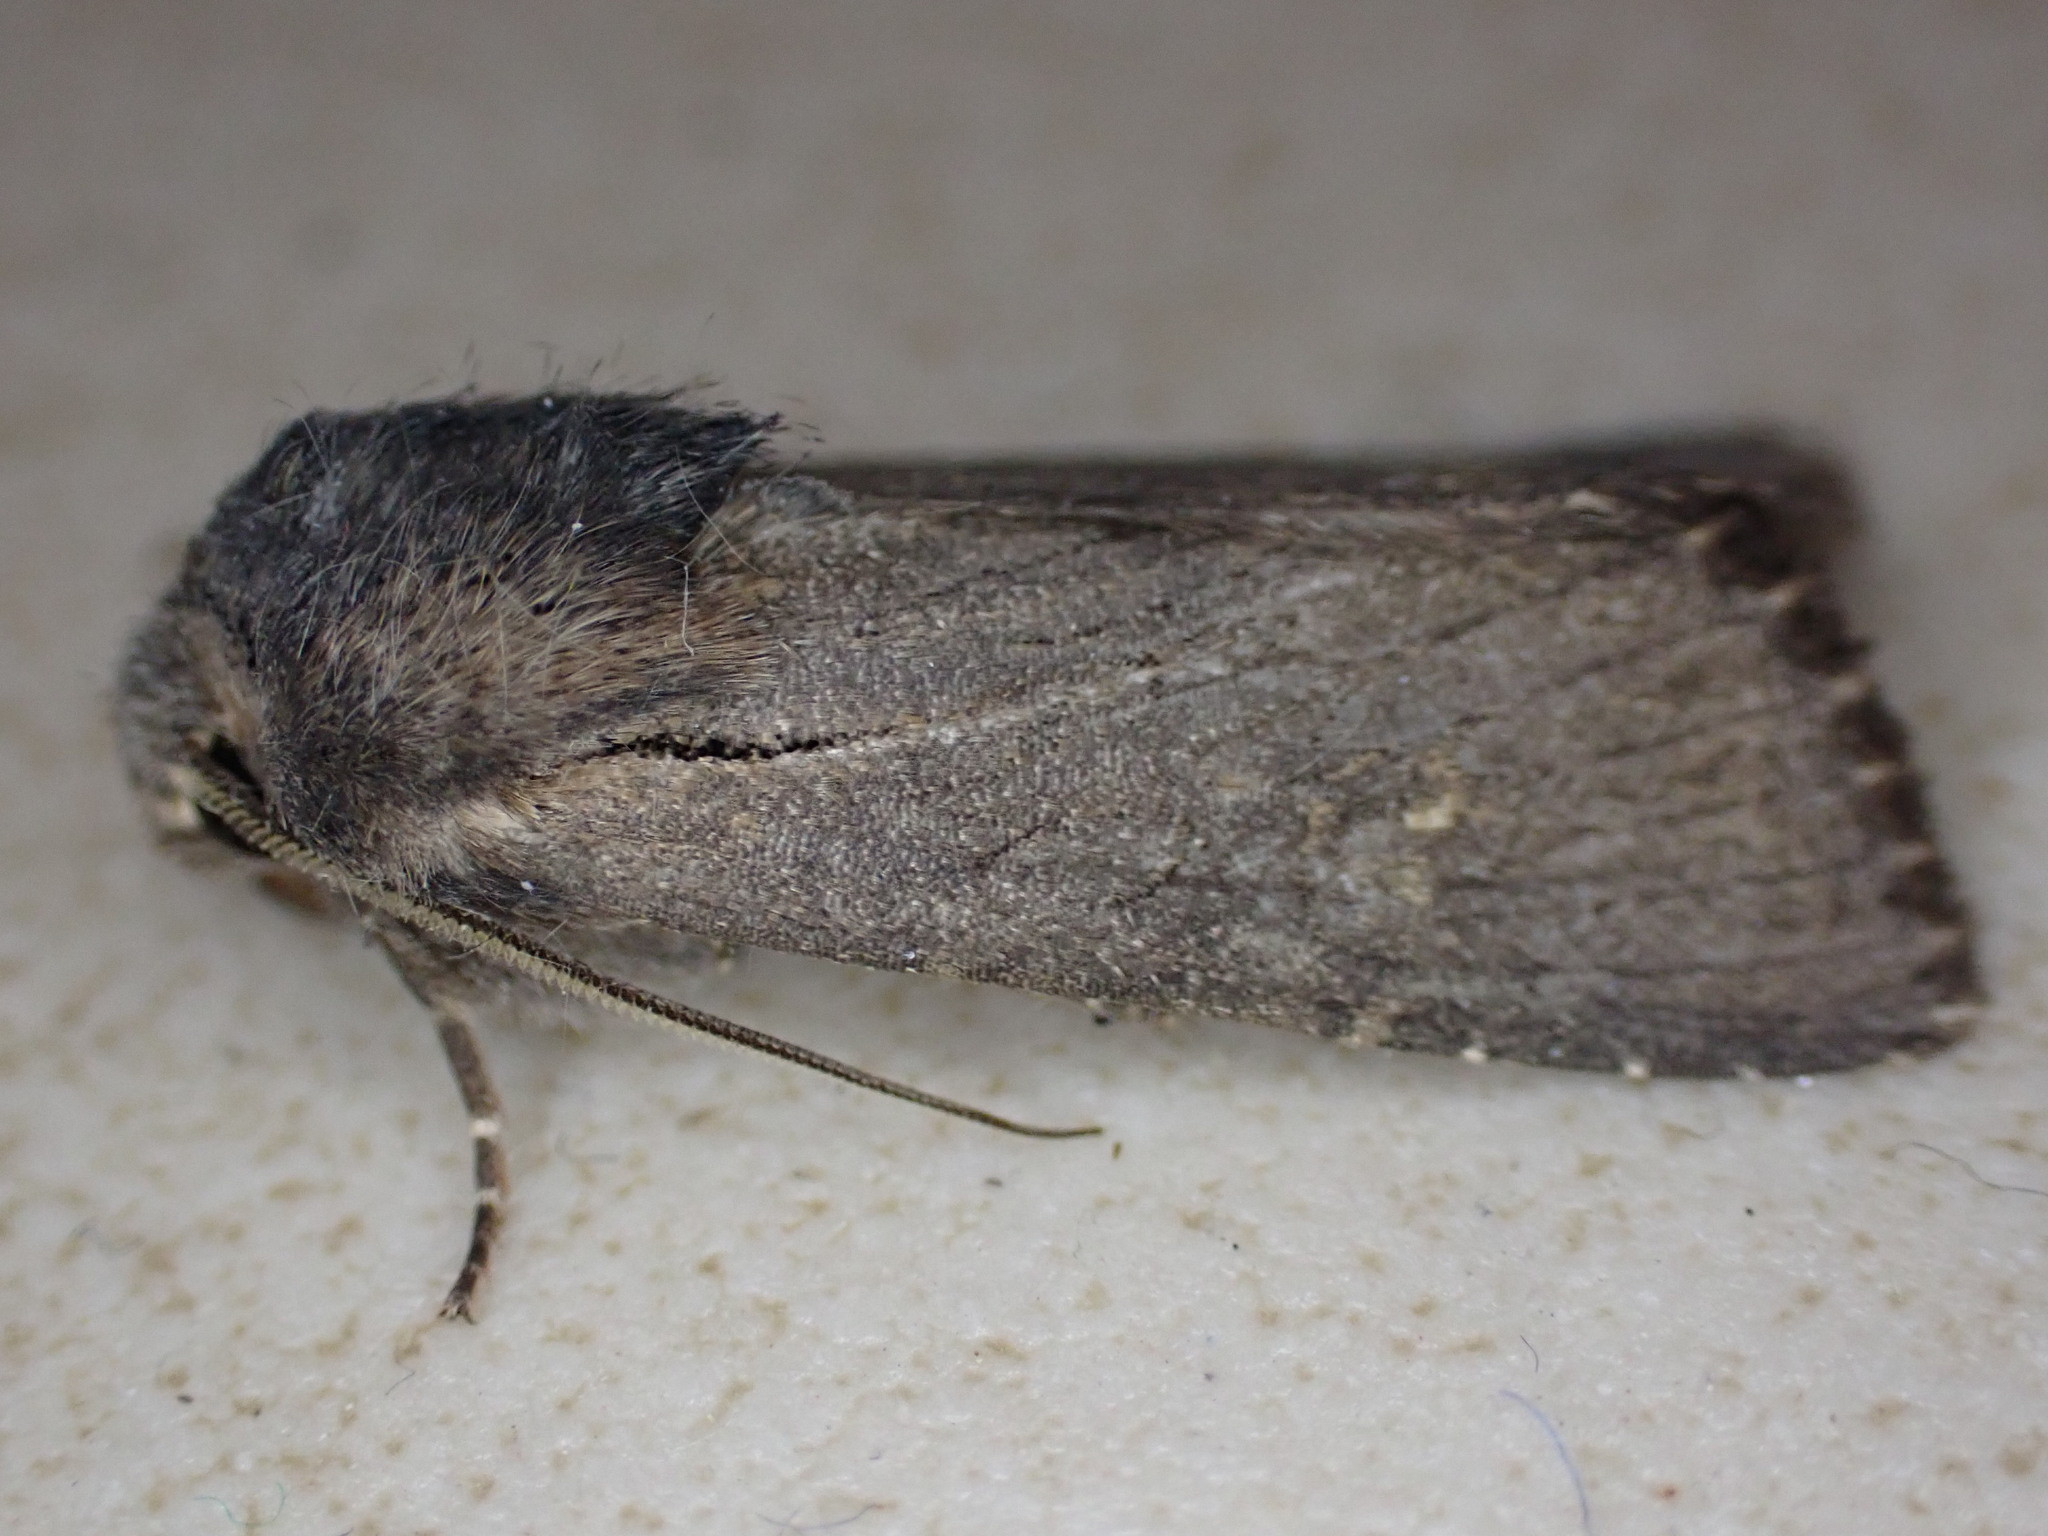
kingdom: Animalia
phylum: Arthropoda
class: Insecta
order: Lepidoptera
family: Noctuidae
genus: Aporophyla
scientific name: Aporophyla australis
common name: Feathered brindle
